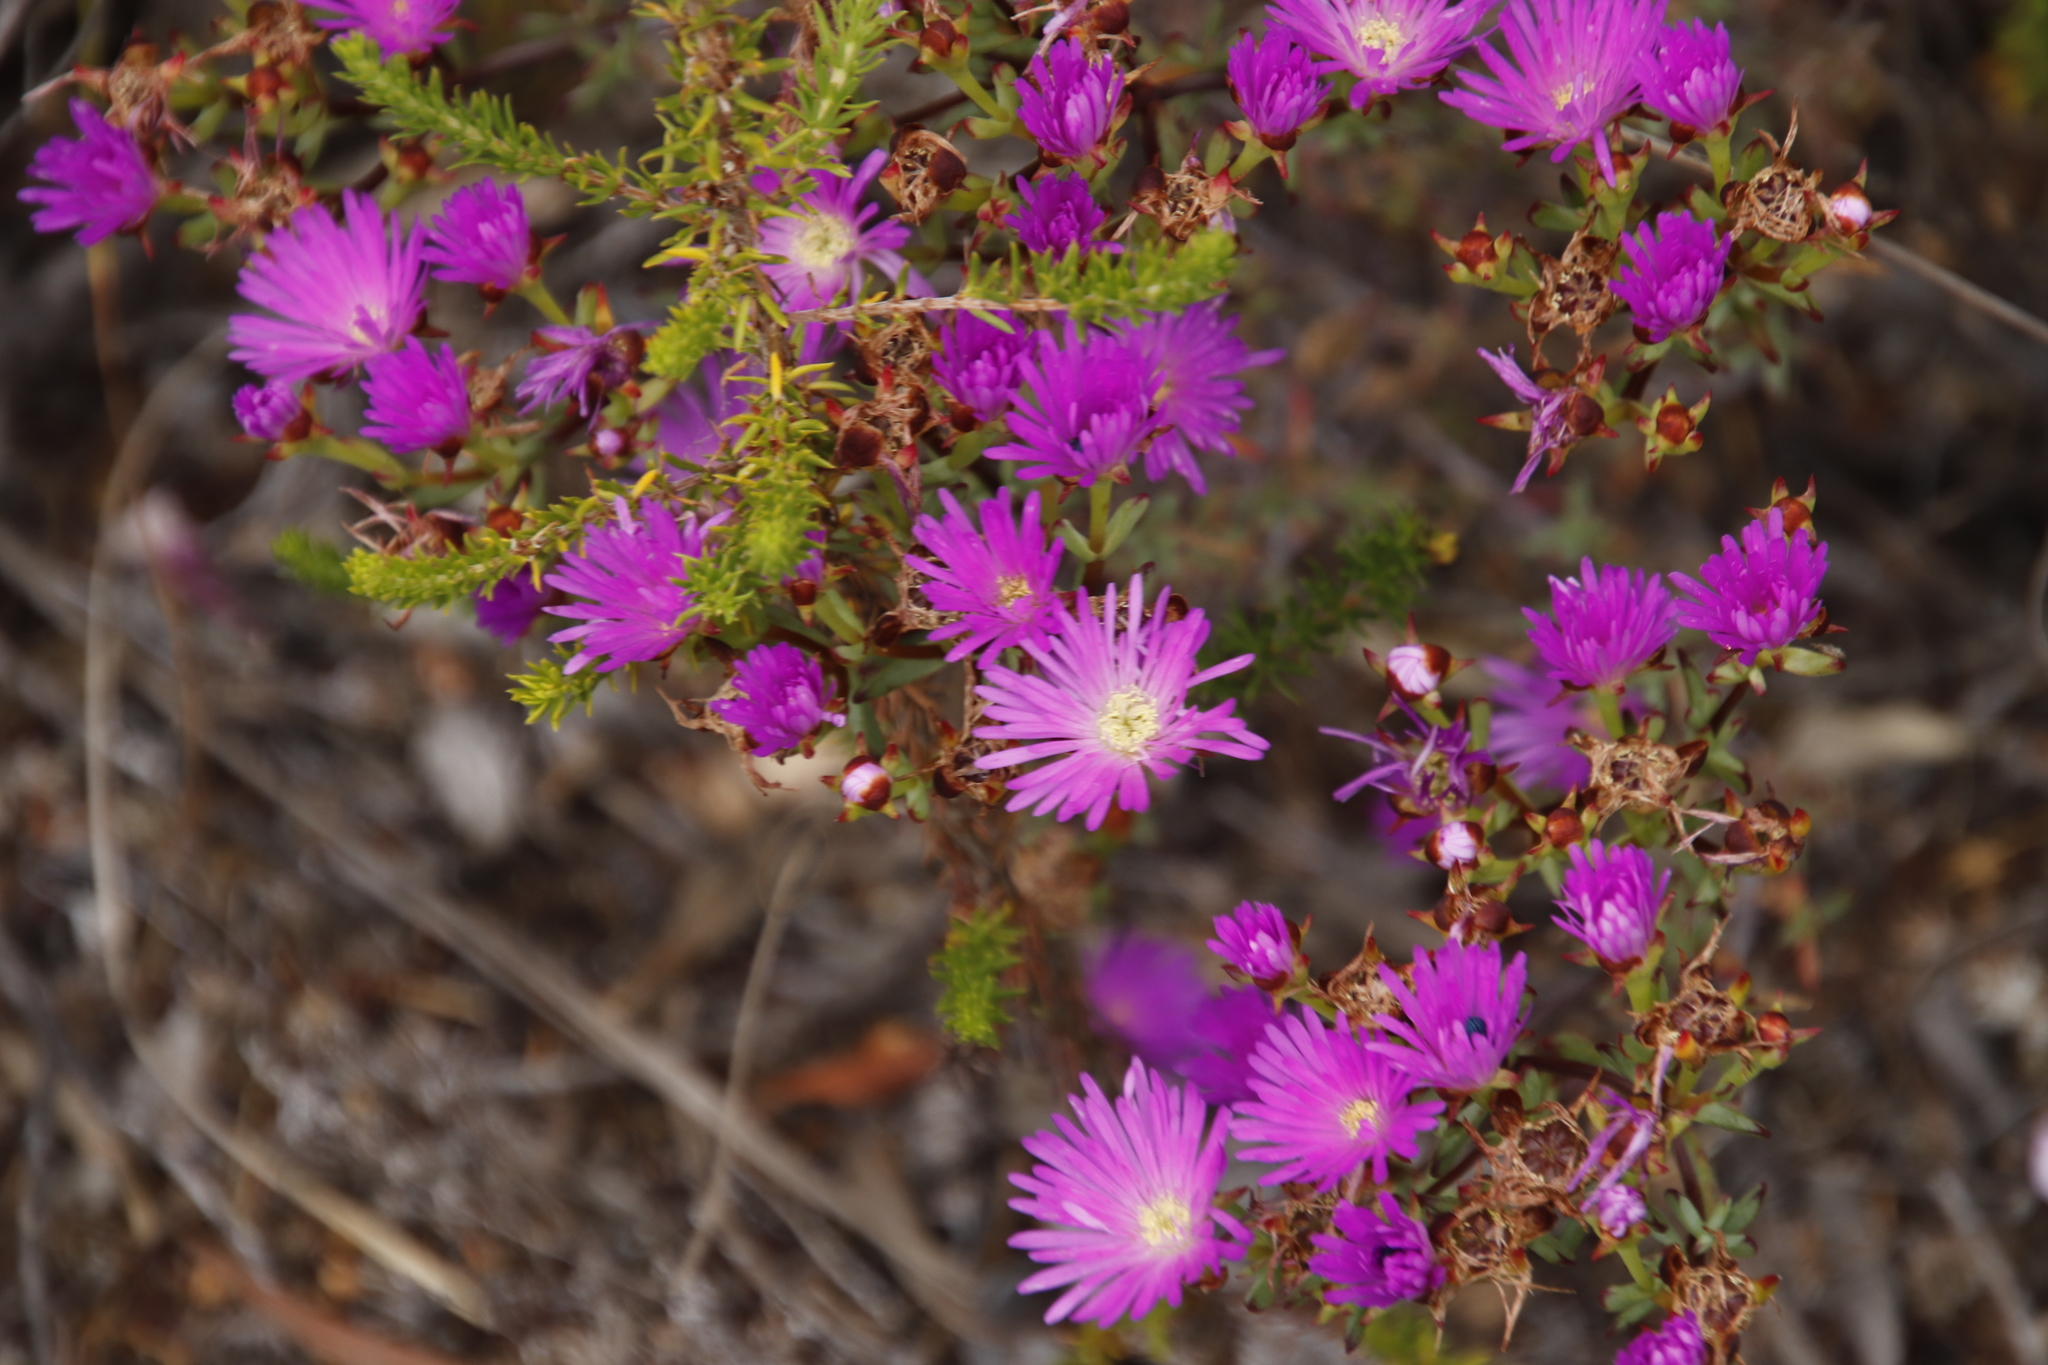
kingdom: Plantae
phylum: Tracheophyta
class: Magnoliopsida
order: Caryophyllales
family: Aizoaceae
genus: Lampranthus
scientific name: Lampranthus emarginatus
